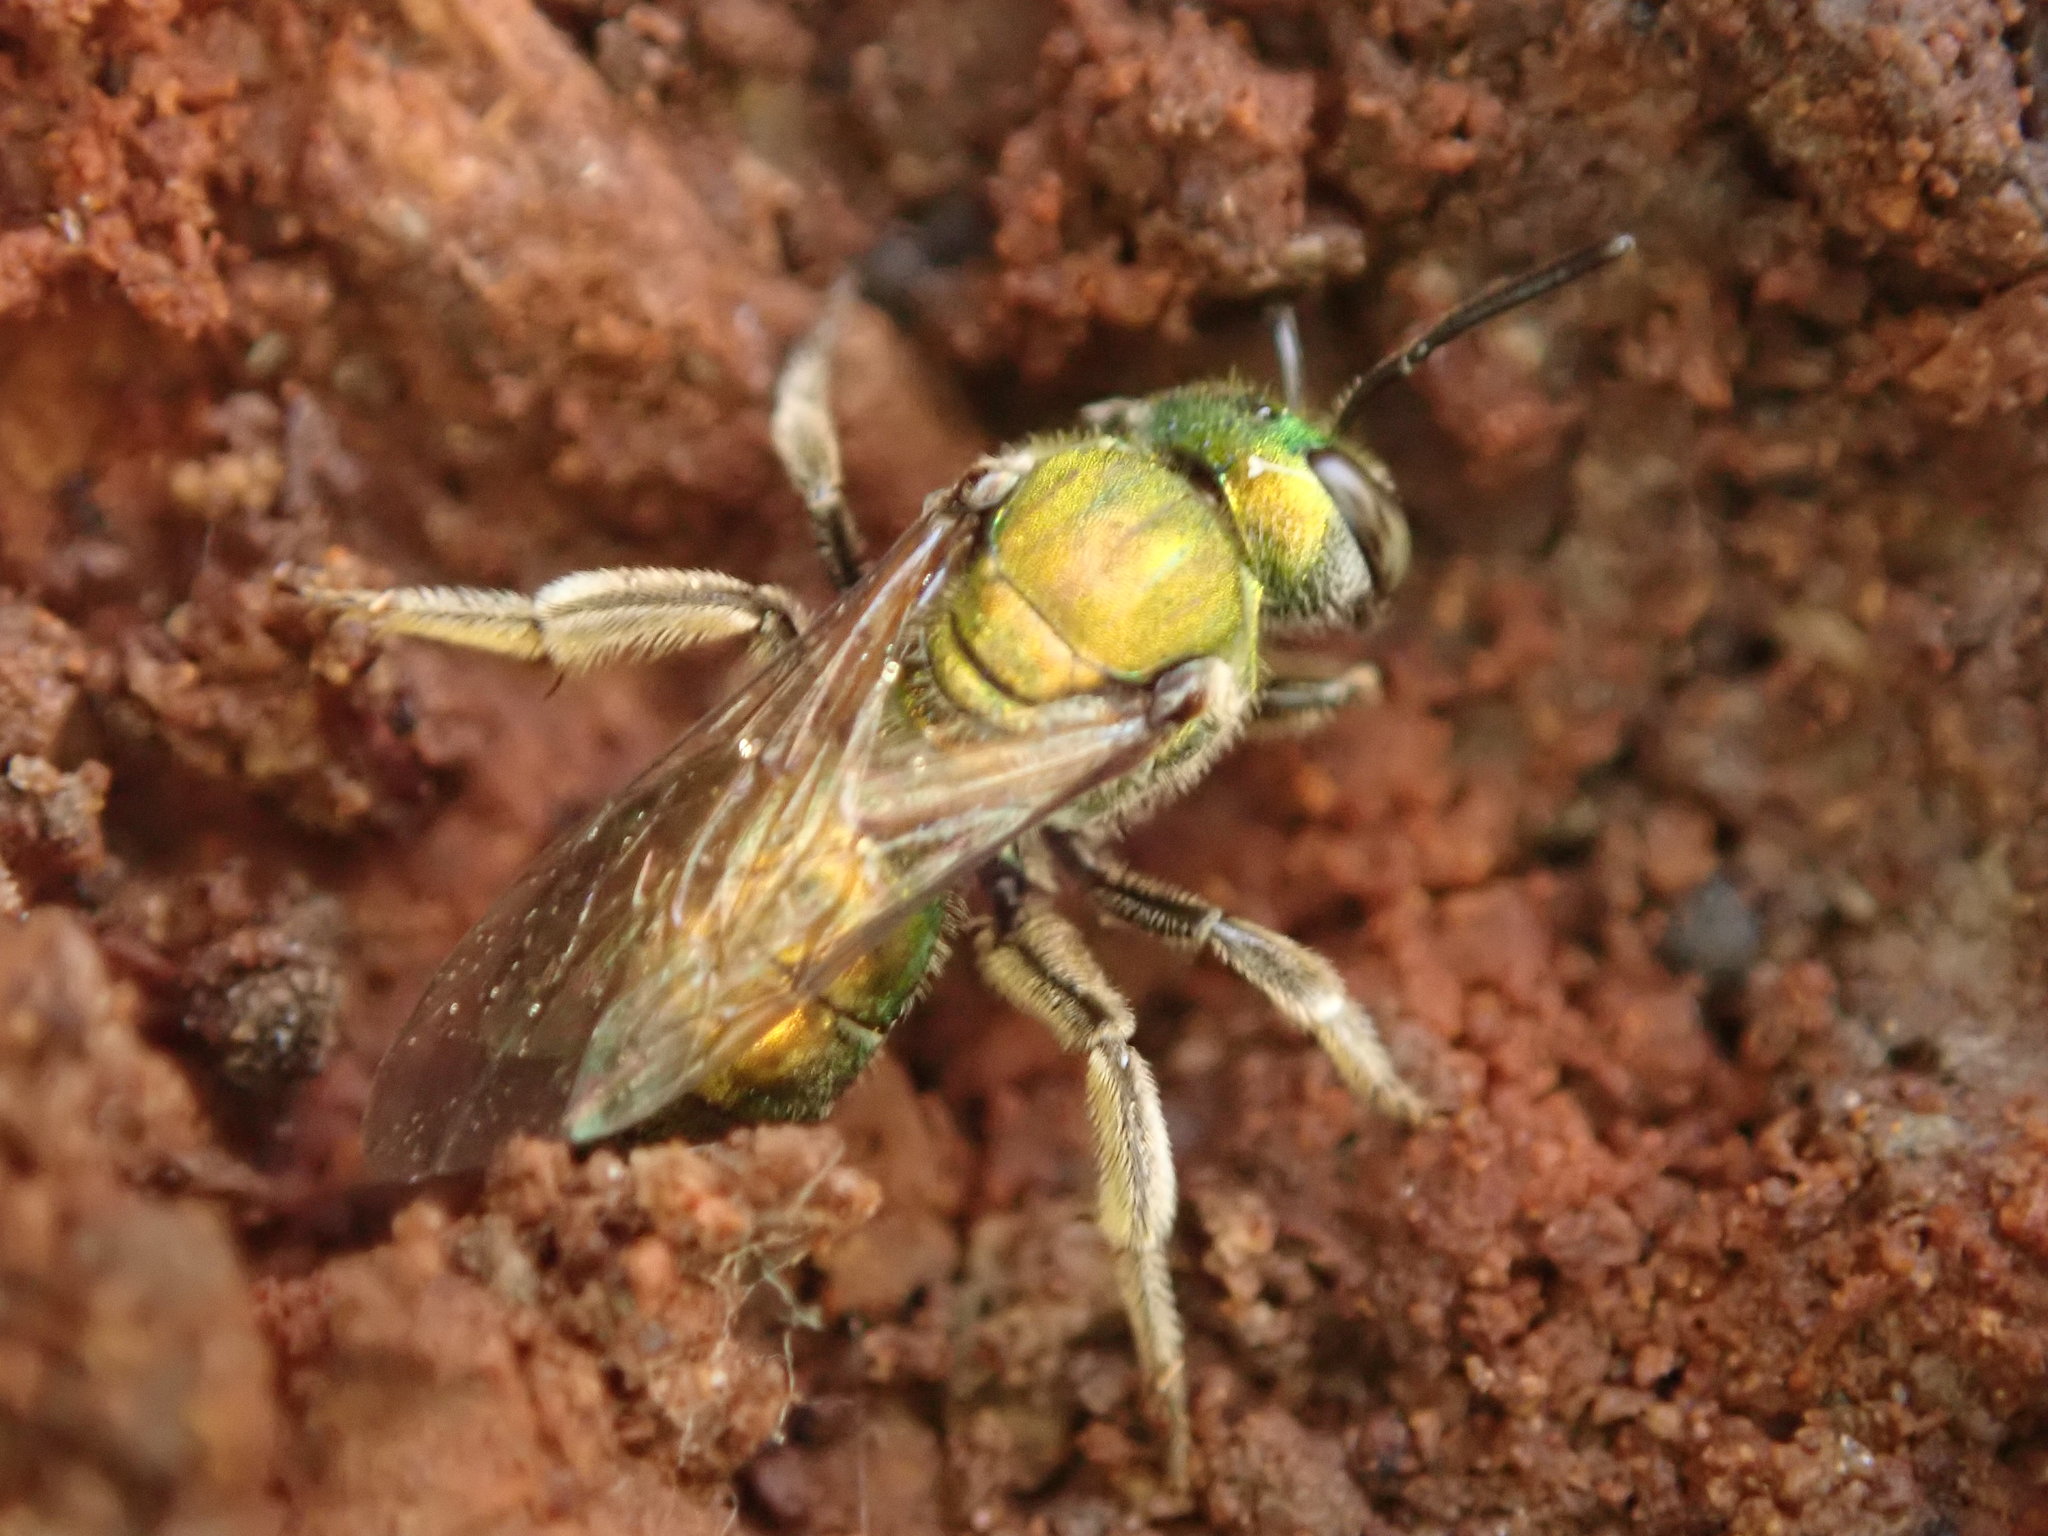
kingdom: Animalia
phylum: Arthropoda
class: Insecta
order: Hymenoptera
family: Halictidae
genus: Augochlora
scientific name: Augochlora pura
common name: Pure green sweat bee
